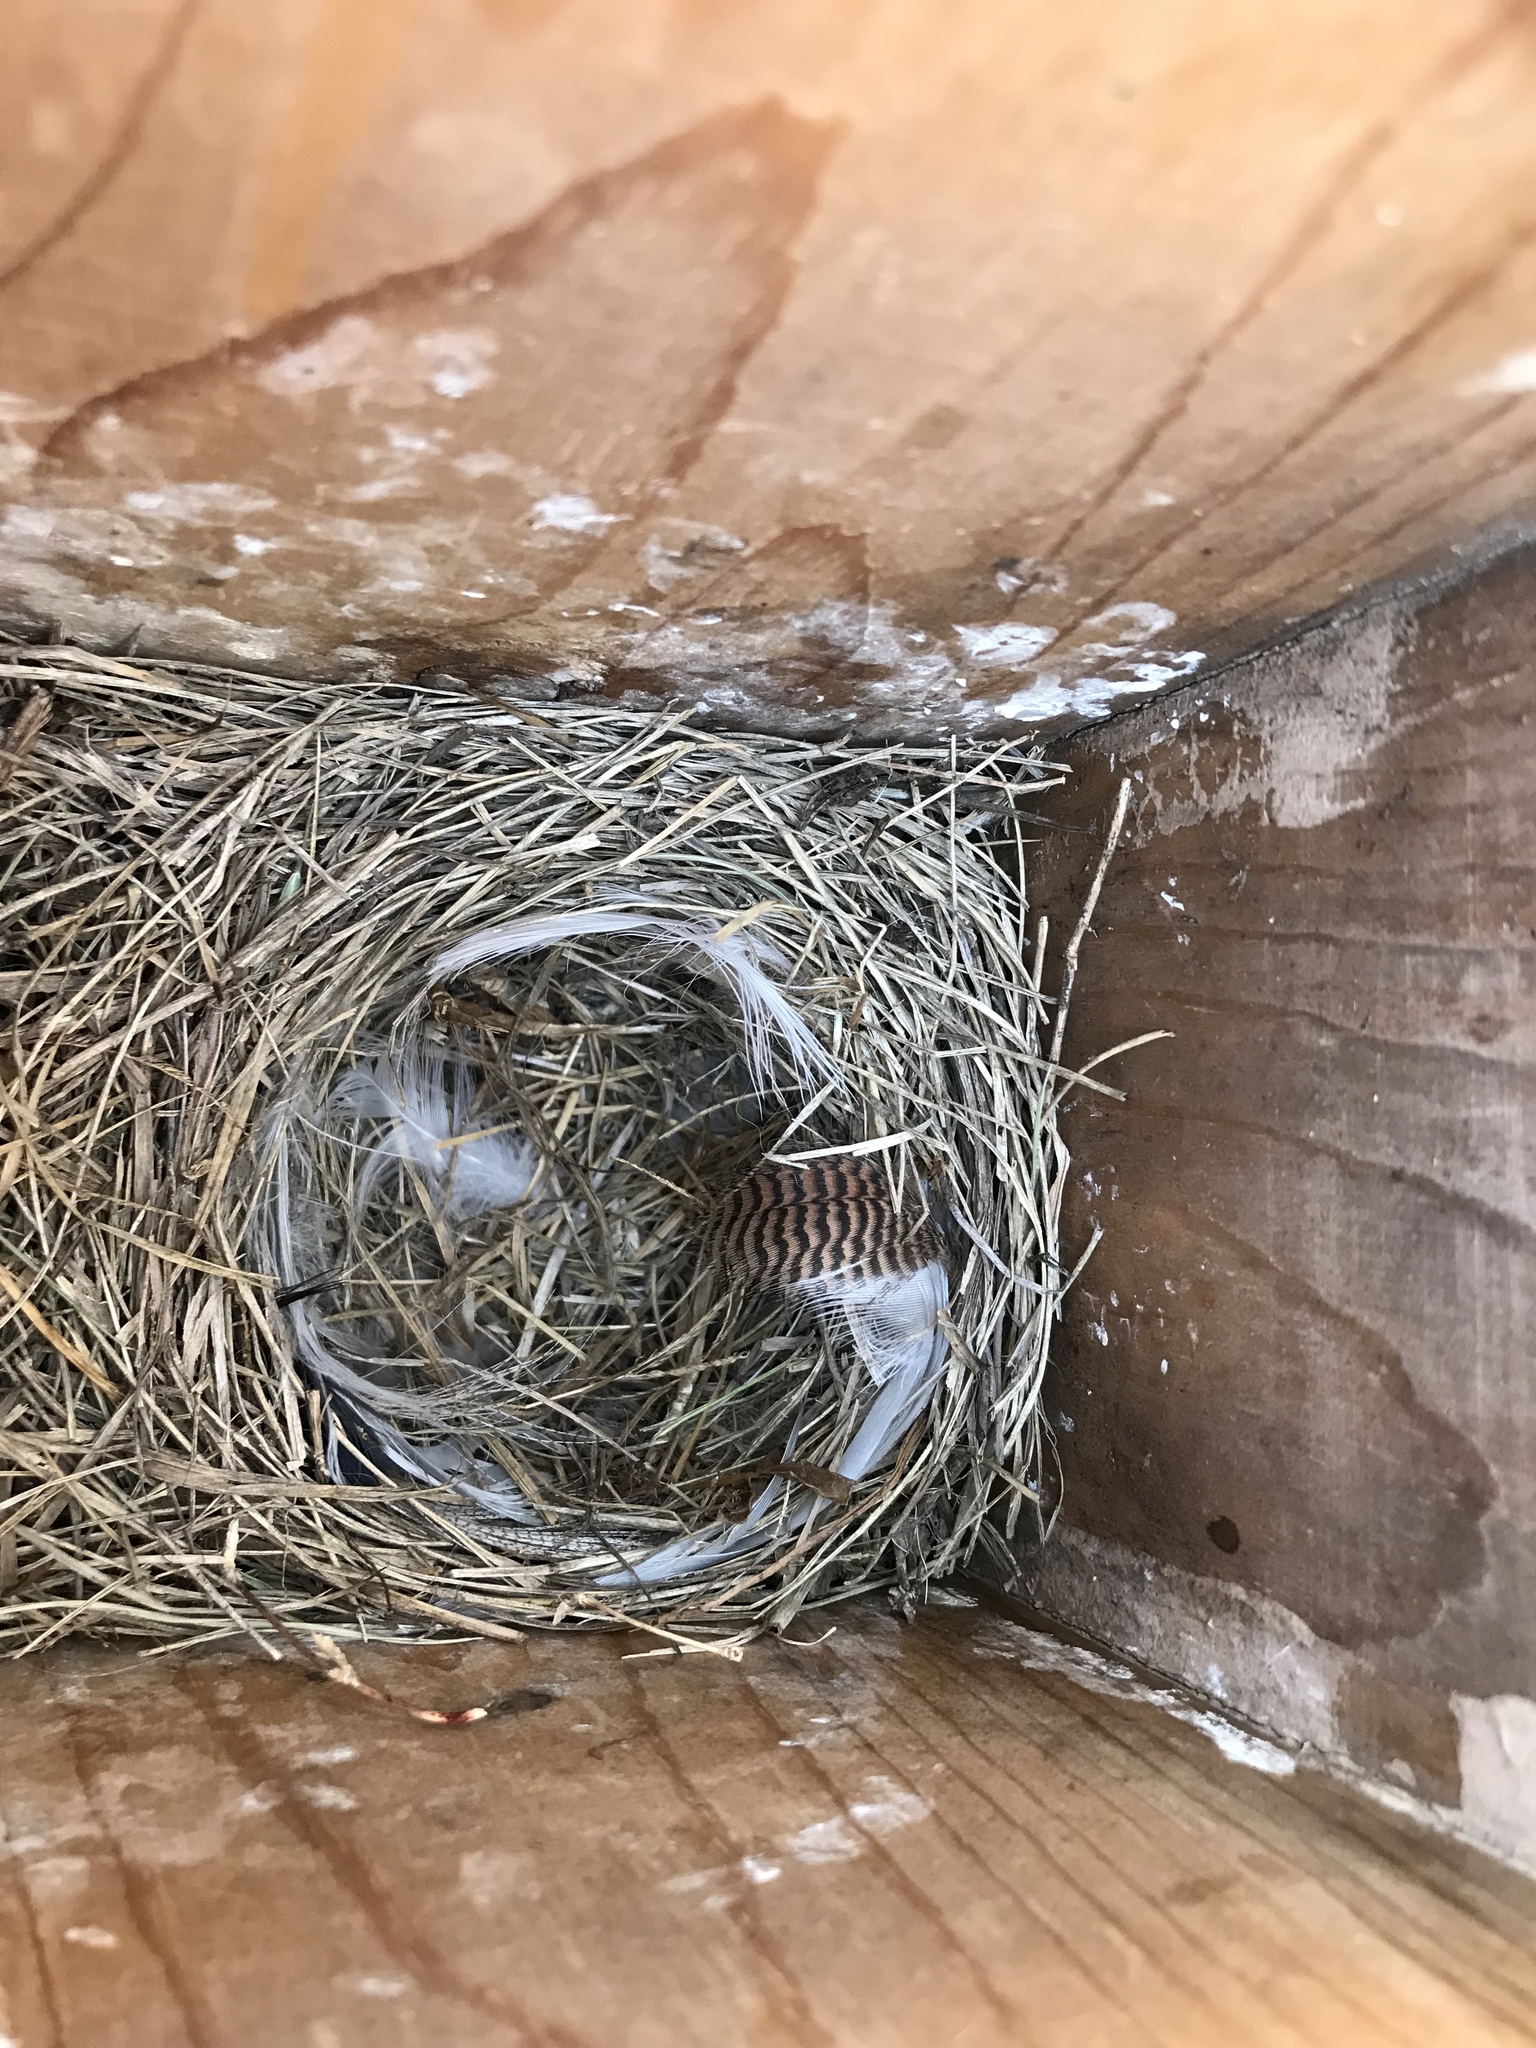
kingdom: Animalia
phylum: Chordata
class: Aves
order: Passeriformes
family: Turdidae
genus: Sialia
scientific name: Sialia sialis
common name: Eastern bluebird
